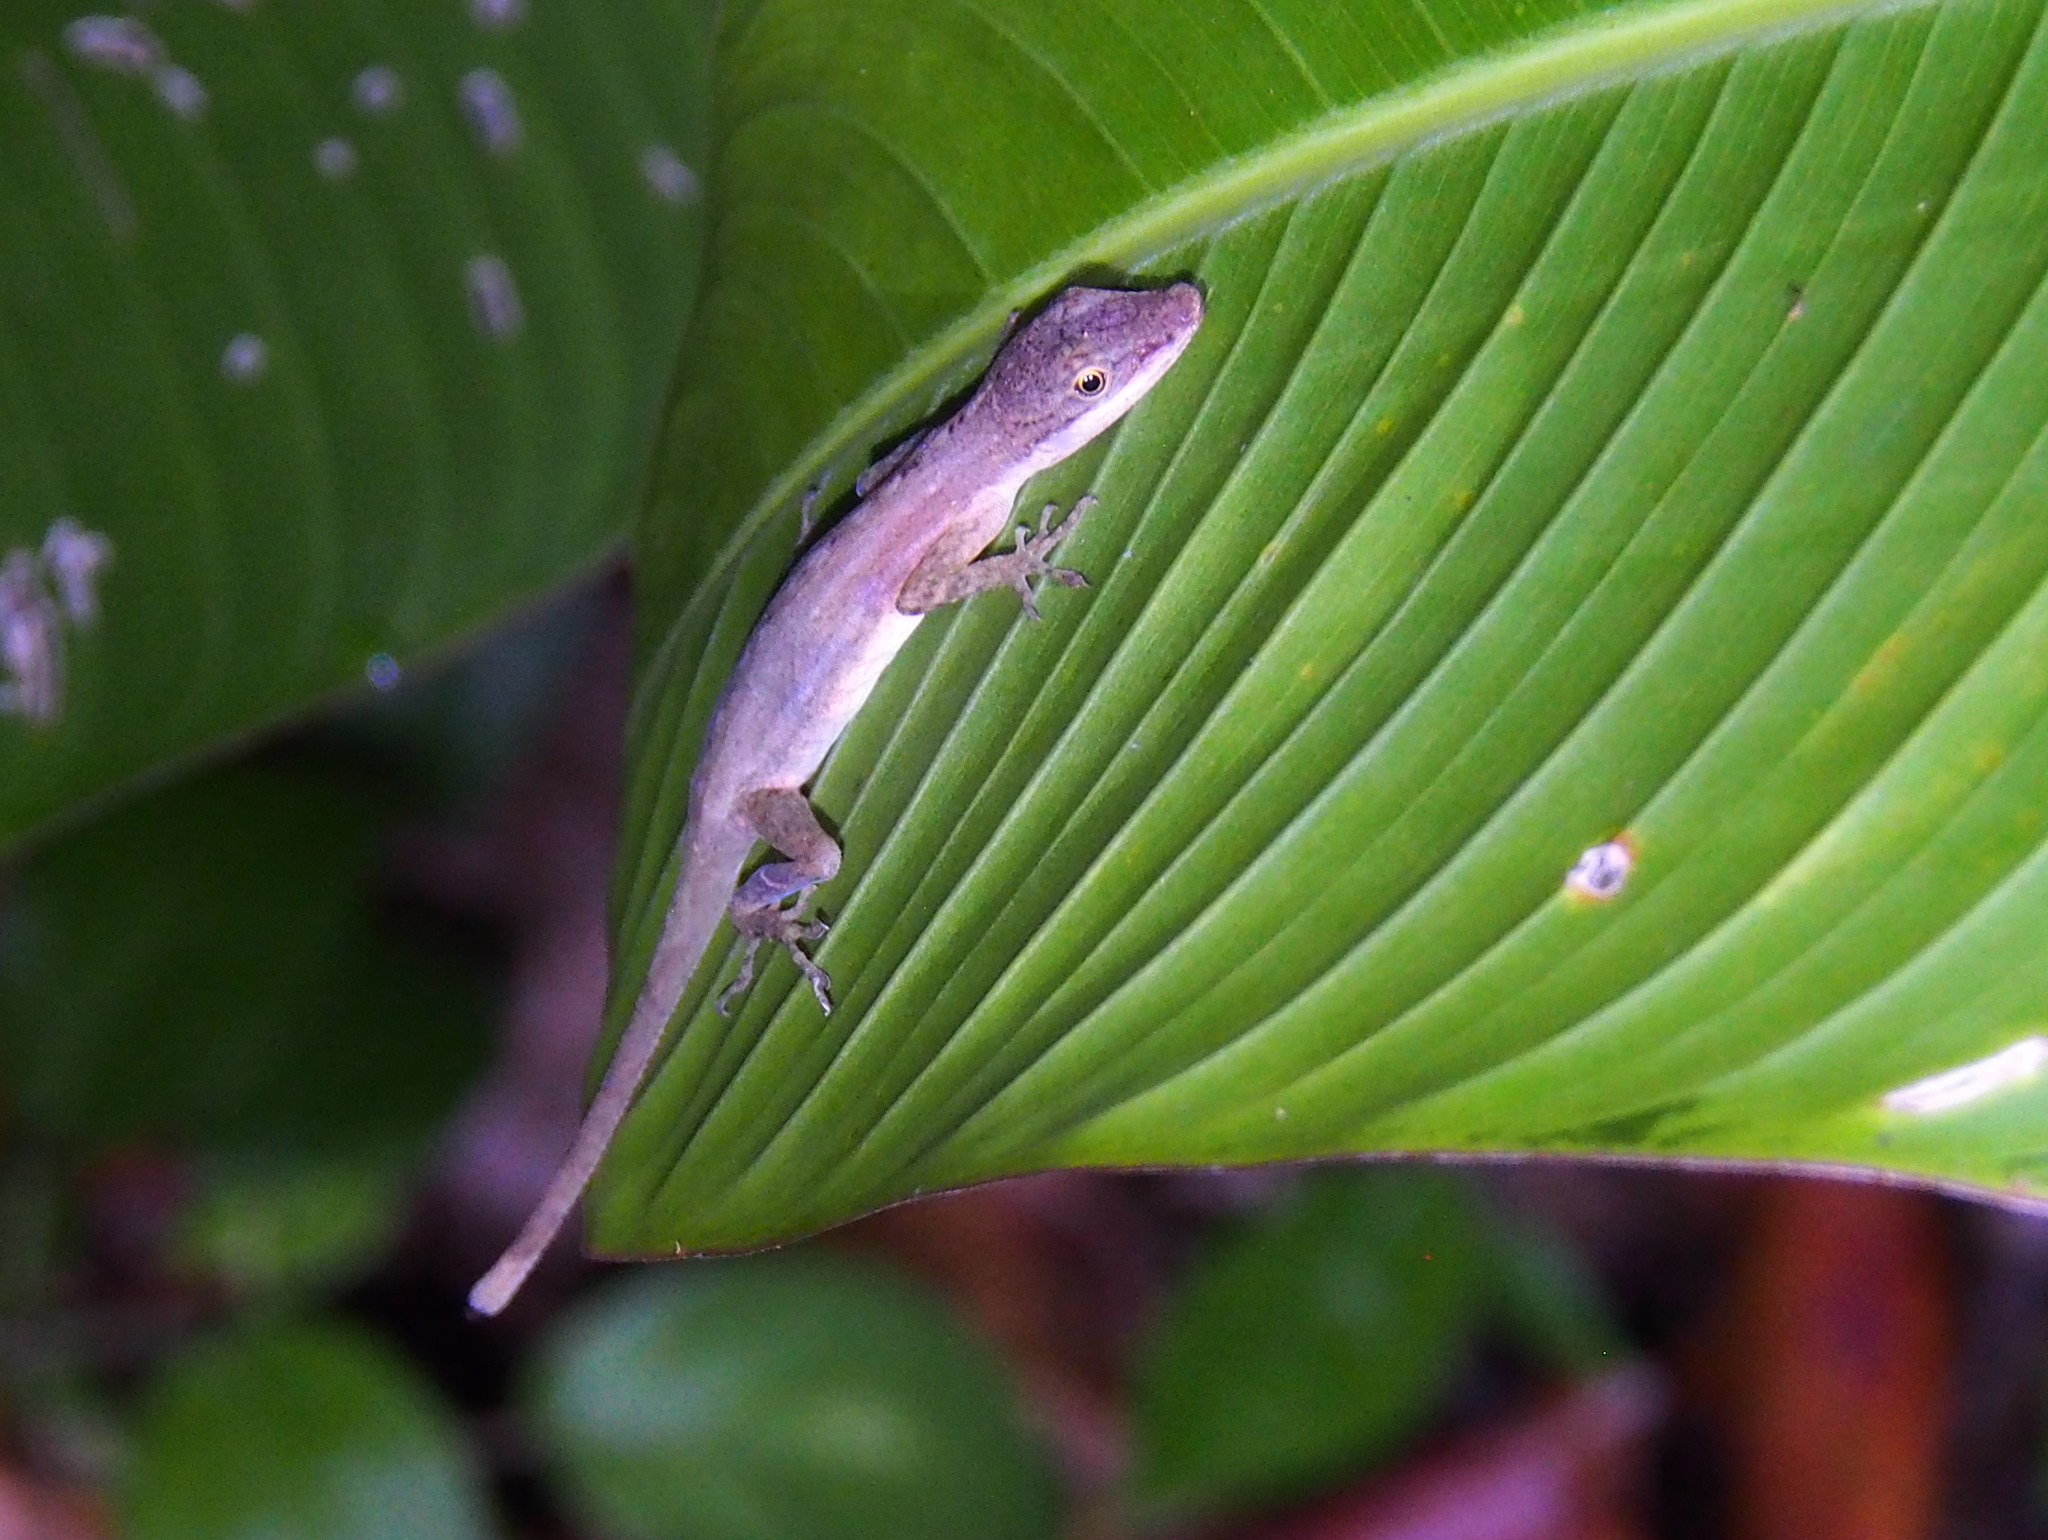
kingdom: Animalia
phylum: Chordata
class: Squamata
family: Dactyloidae
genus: Anolis
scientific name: Anolis limifrons
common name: Border anole
